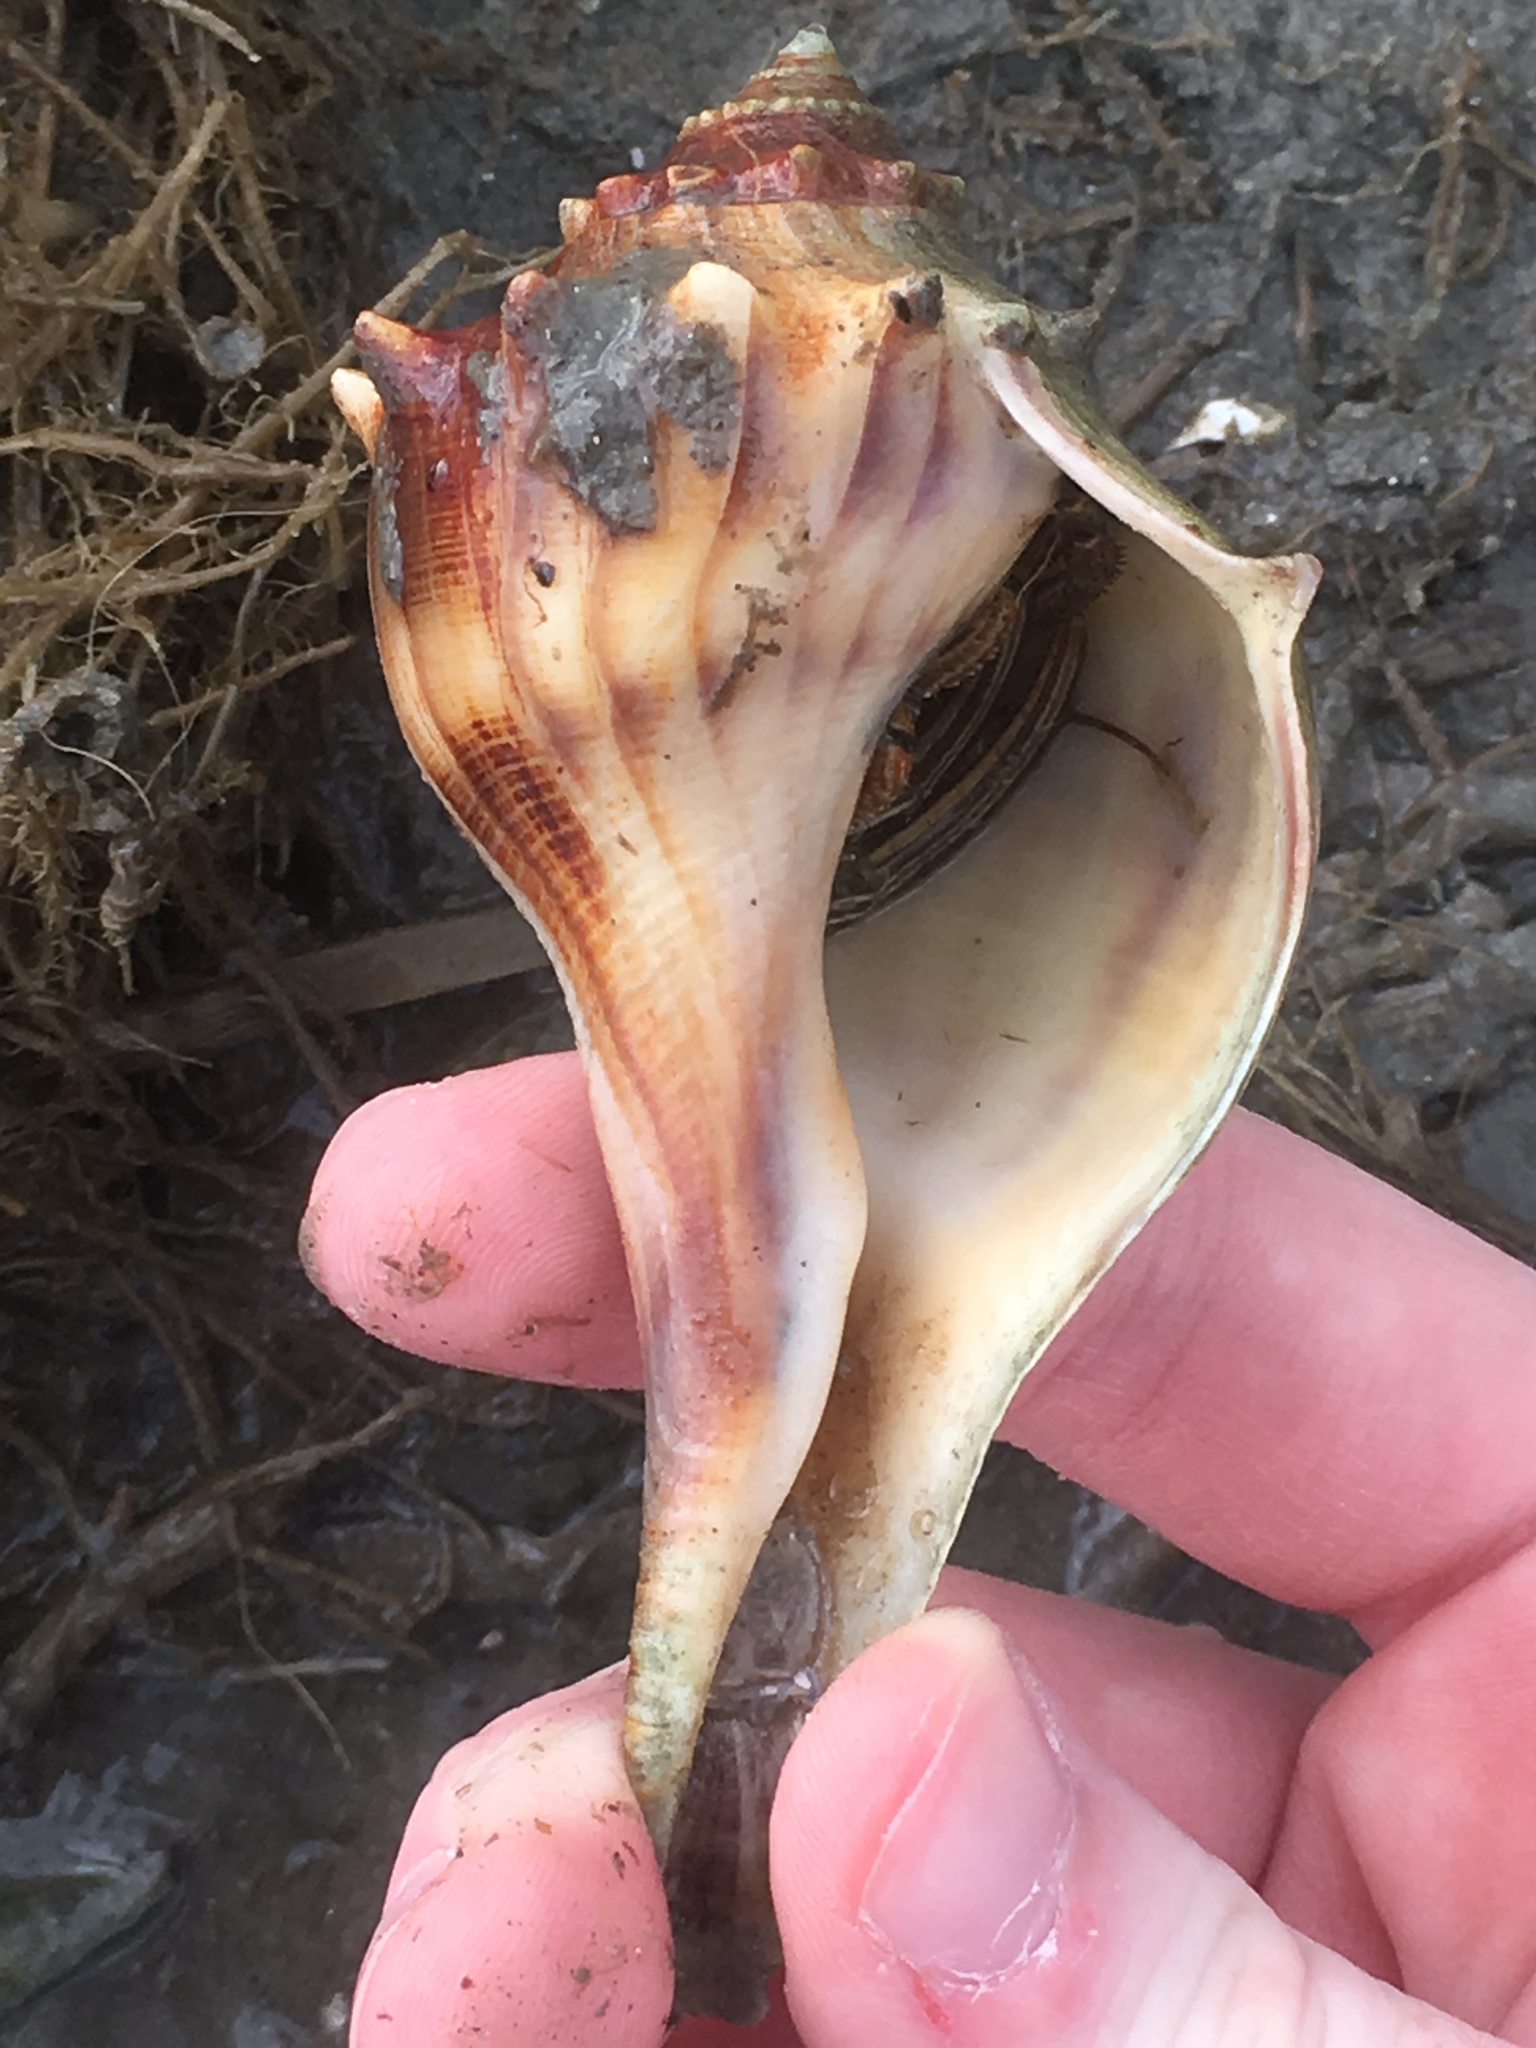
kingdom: Animalia
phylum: Arthropoda
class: Malacostraca
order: Decapoda
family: Diogenidae
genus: Clibanarius
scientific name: Clibanarius vittatus
